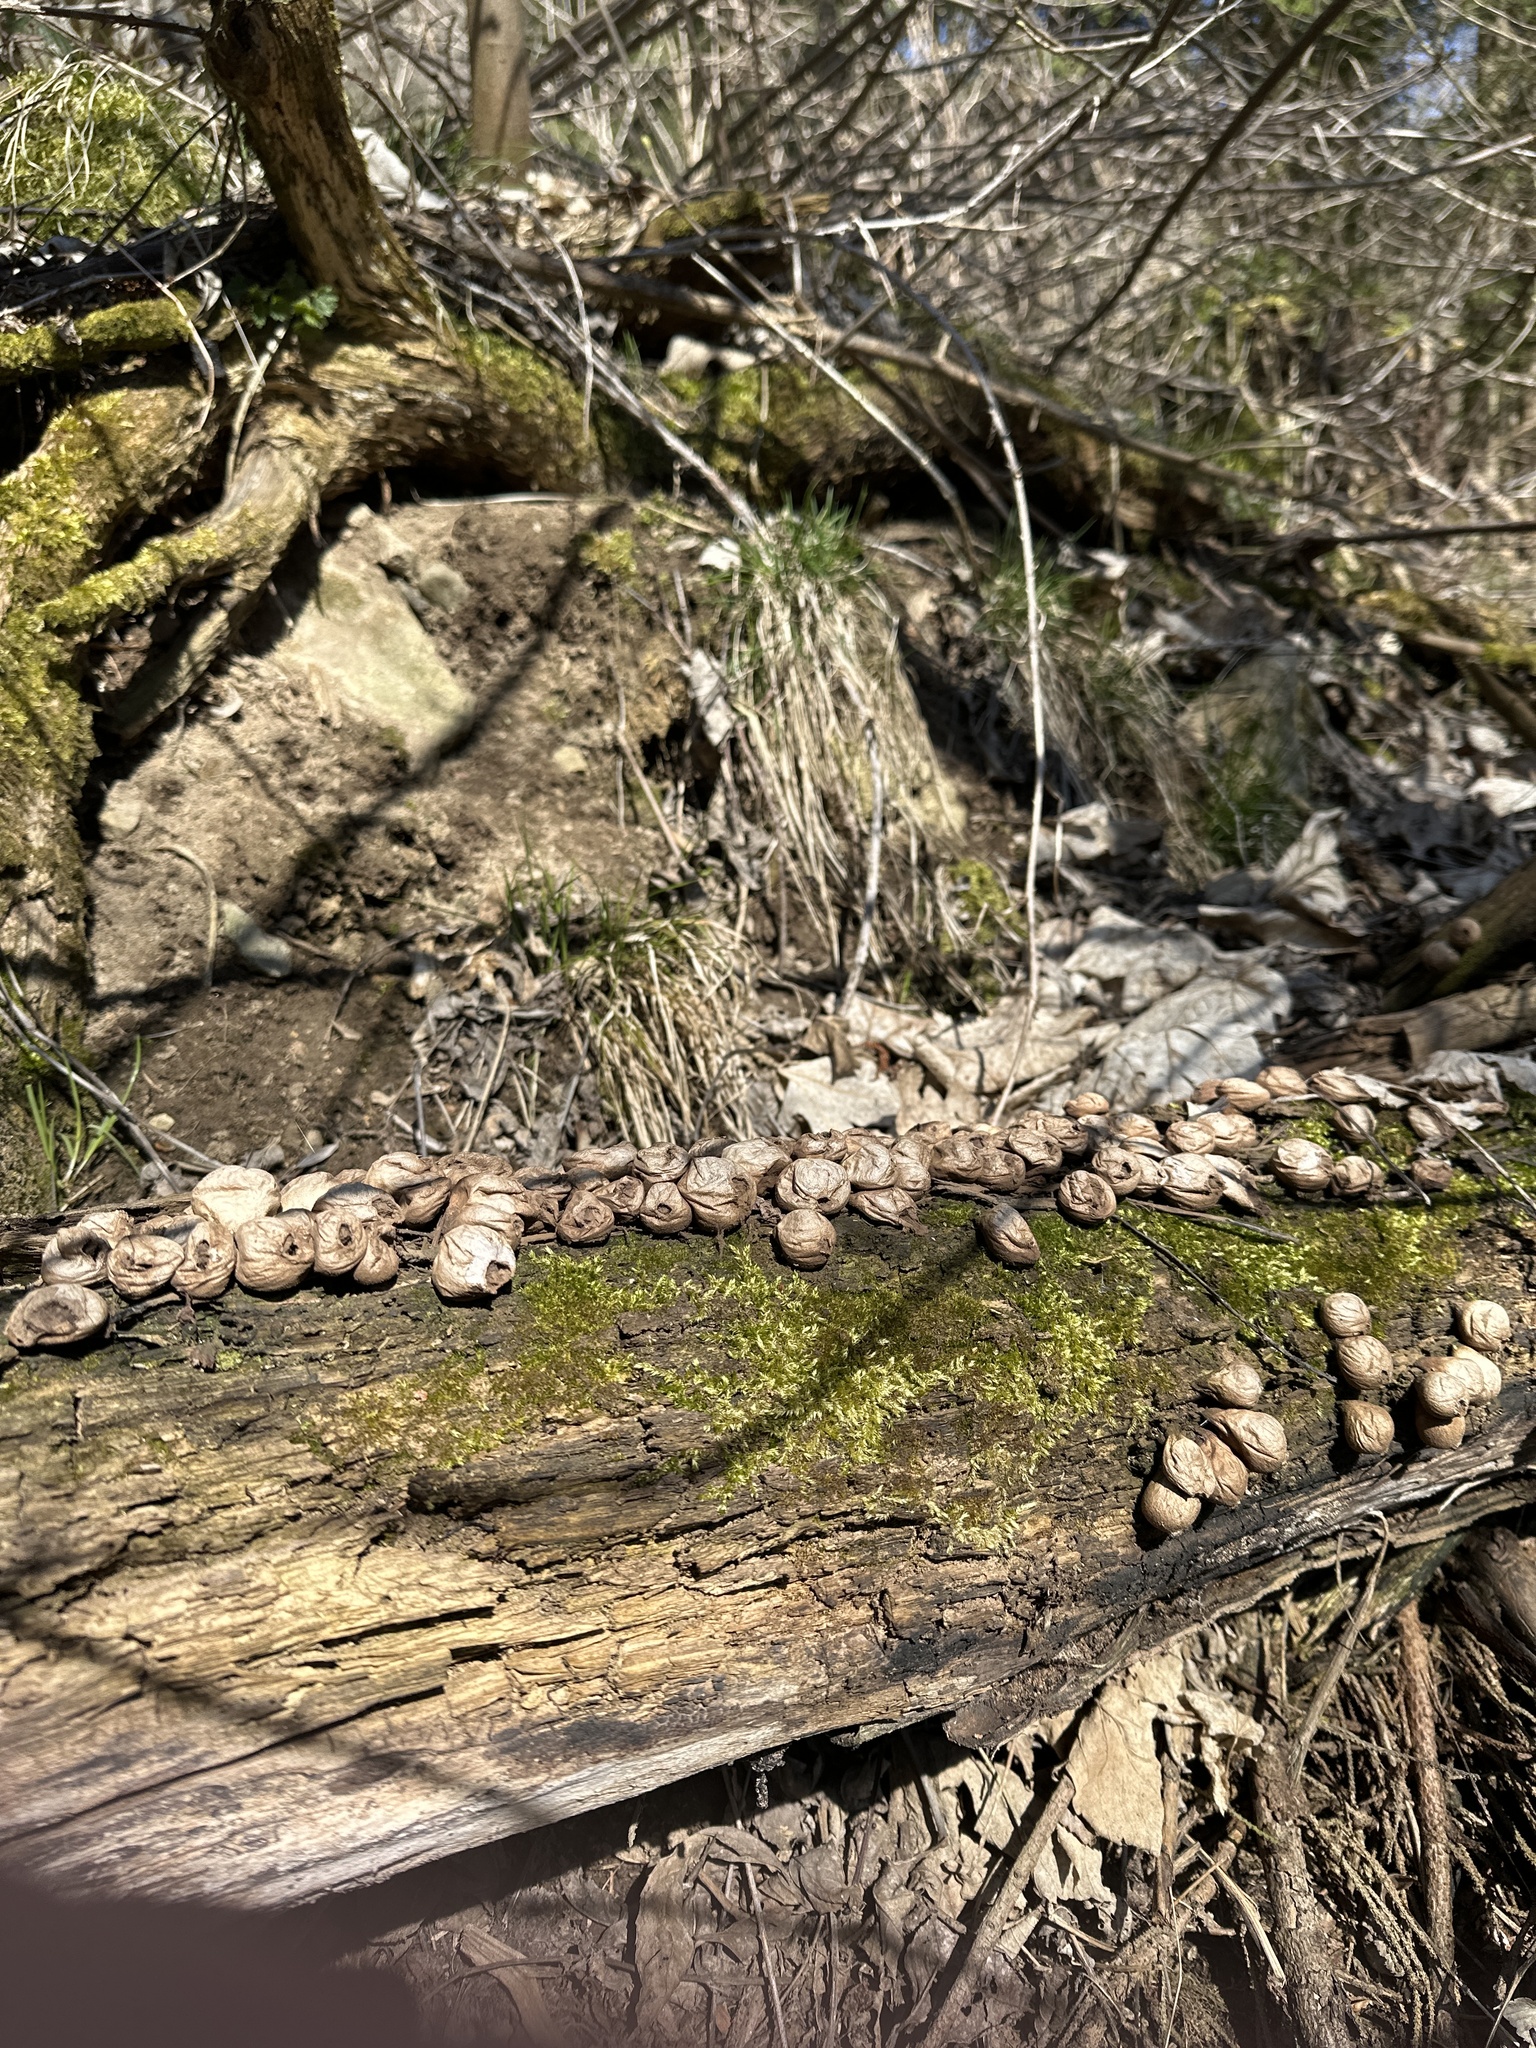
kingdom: Fungi
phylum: Basidiomycota
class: Agaricomycetes
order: Agaricales
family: Lycoperdaceae
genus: Apioperdon
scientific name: Apioperdon pyriforme
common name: Pear-shaped puffball
